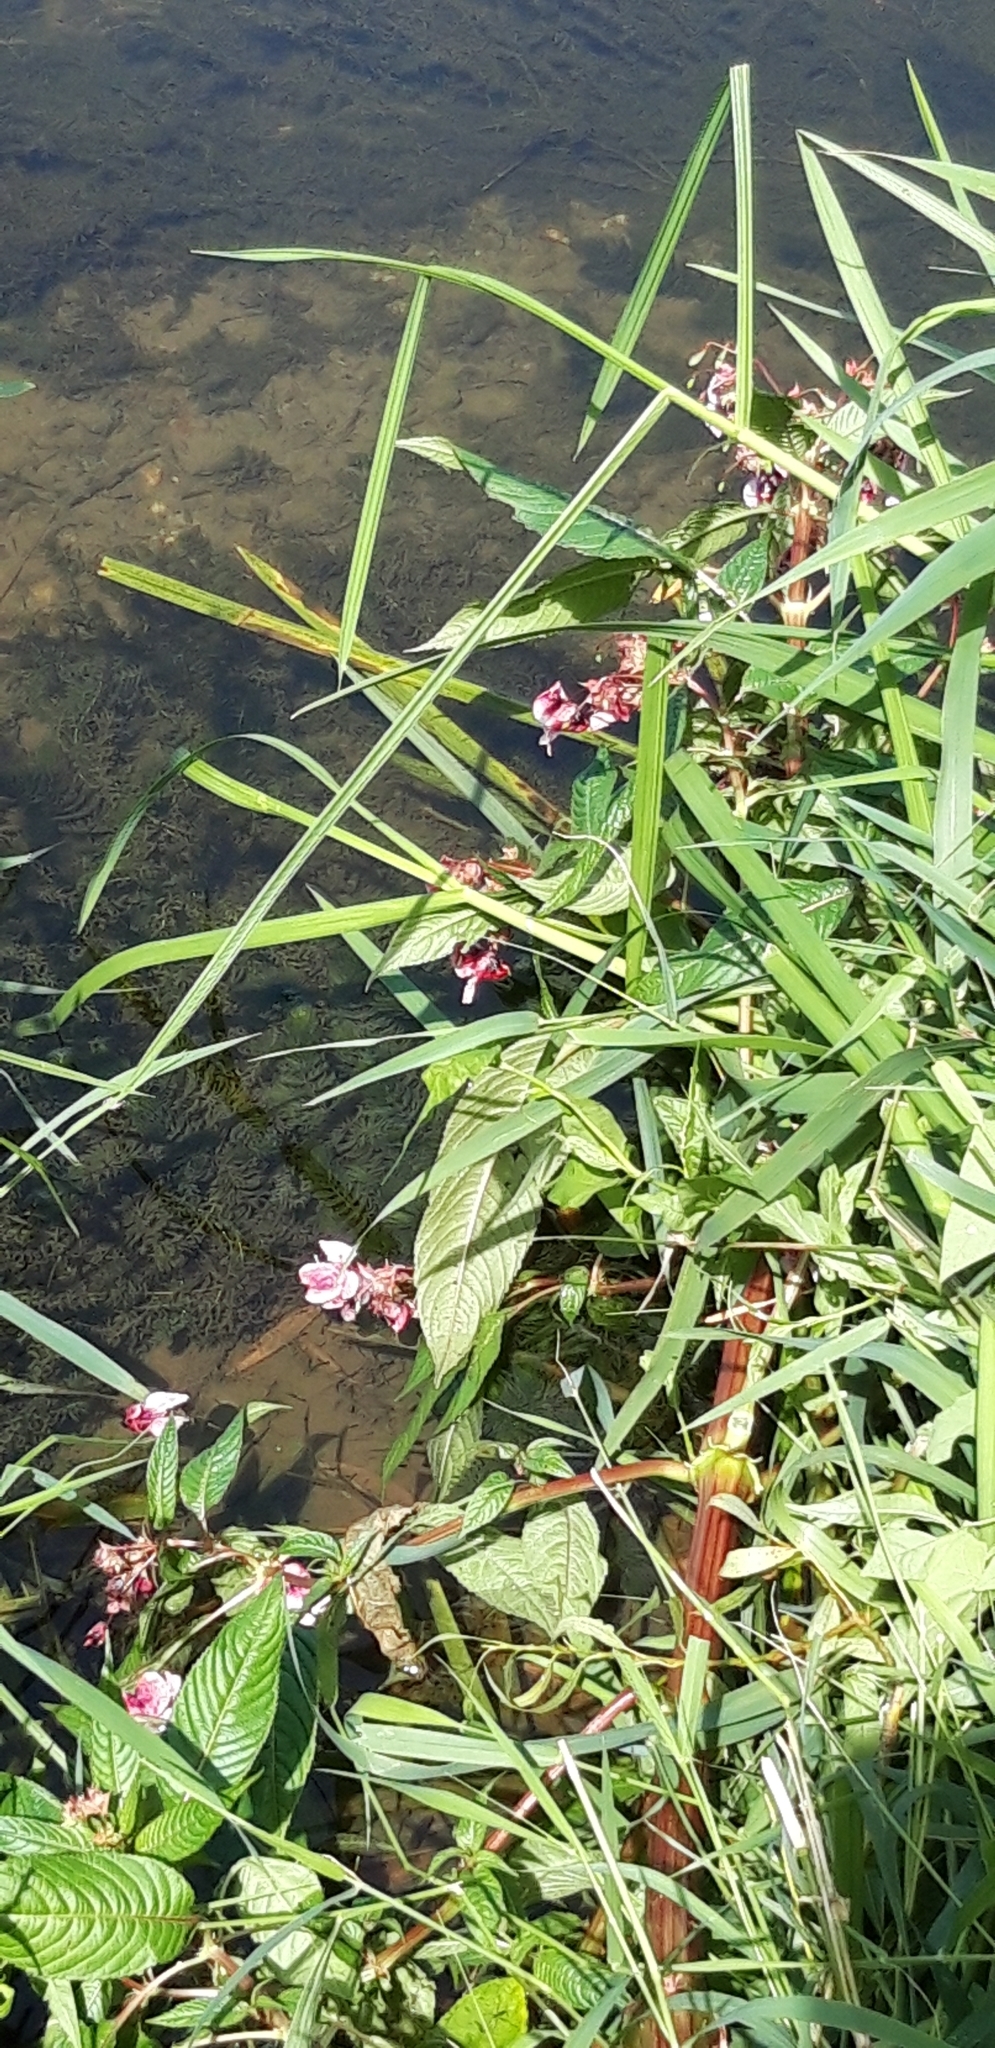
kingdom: Plantae
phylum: Tracheophyta
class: Magnoliopsida
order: Ericales
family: Balsaminaceae
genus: Impatiens
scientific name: Impatiens glandulifera
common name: Himalayan balsam
